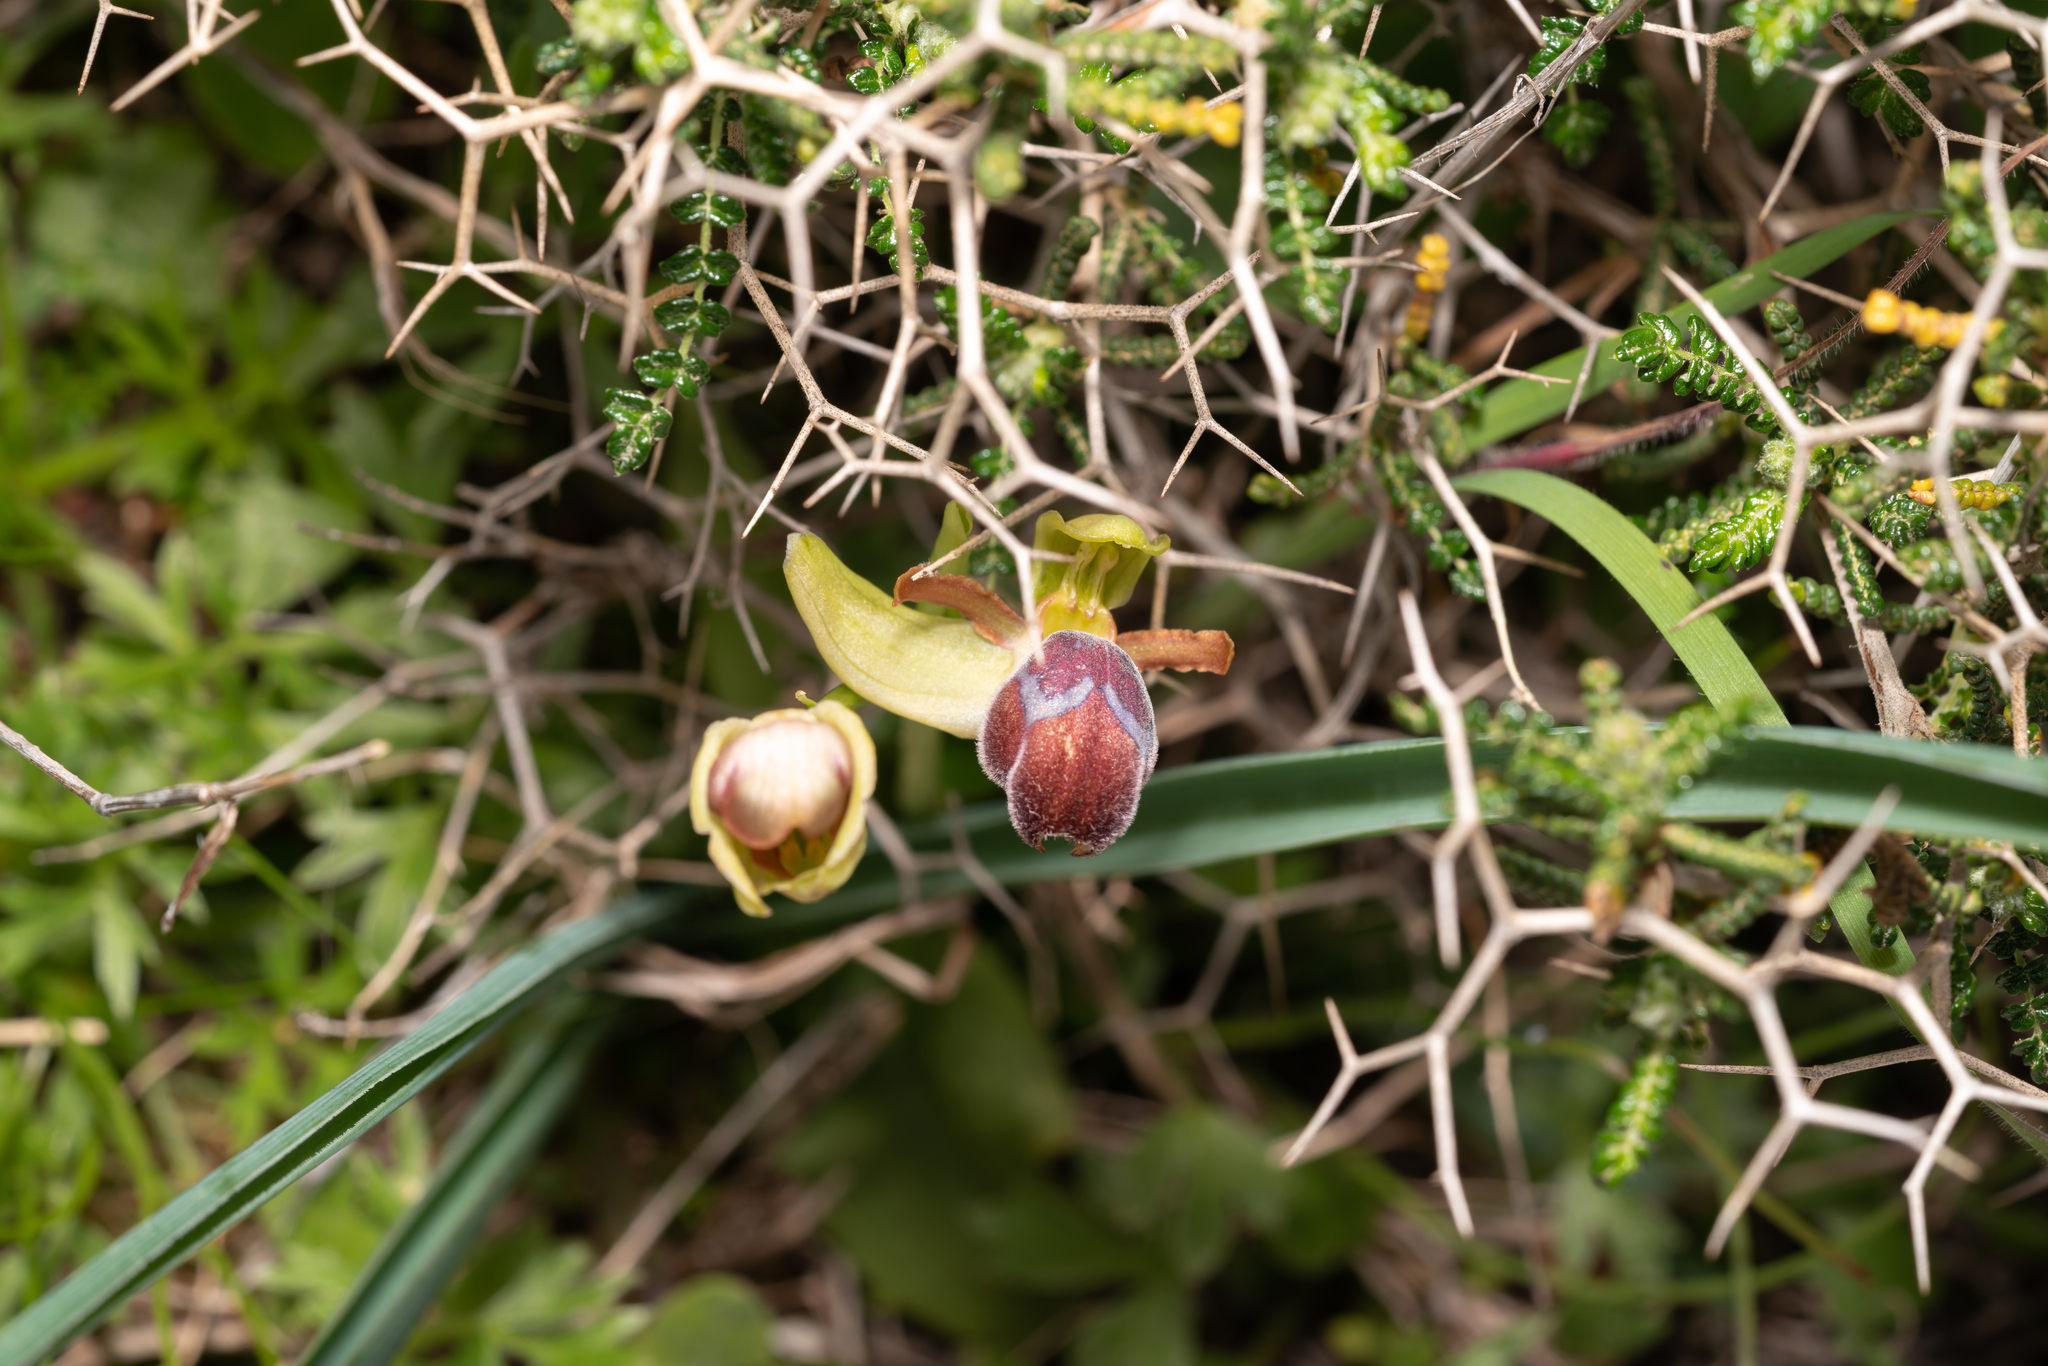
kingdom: Plantae
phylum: Tracheophyta
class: Liliopsida
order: Asparagales
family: Orchidaceae
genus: Ophrys
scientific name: Ophrys omegaifera
